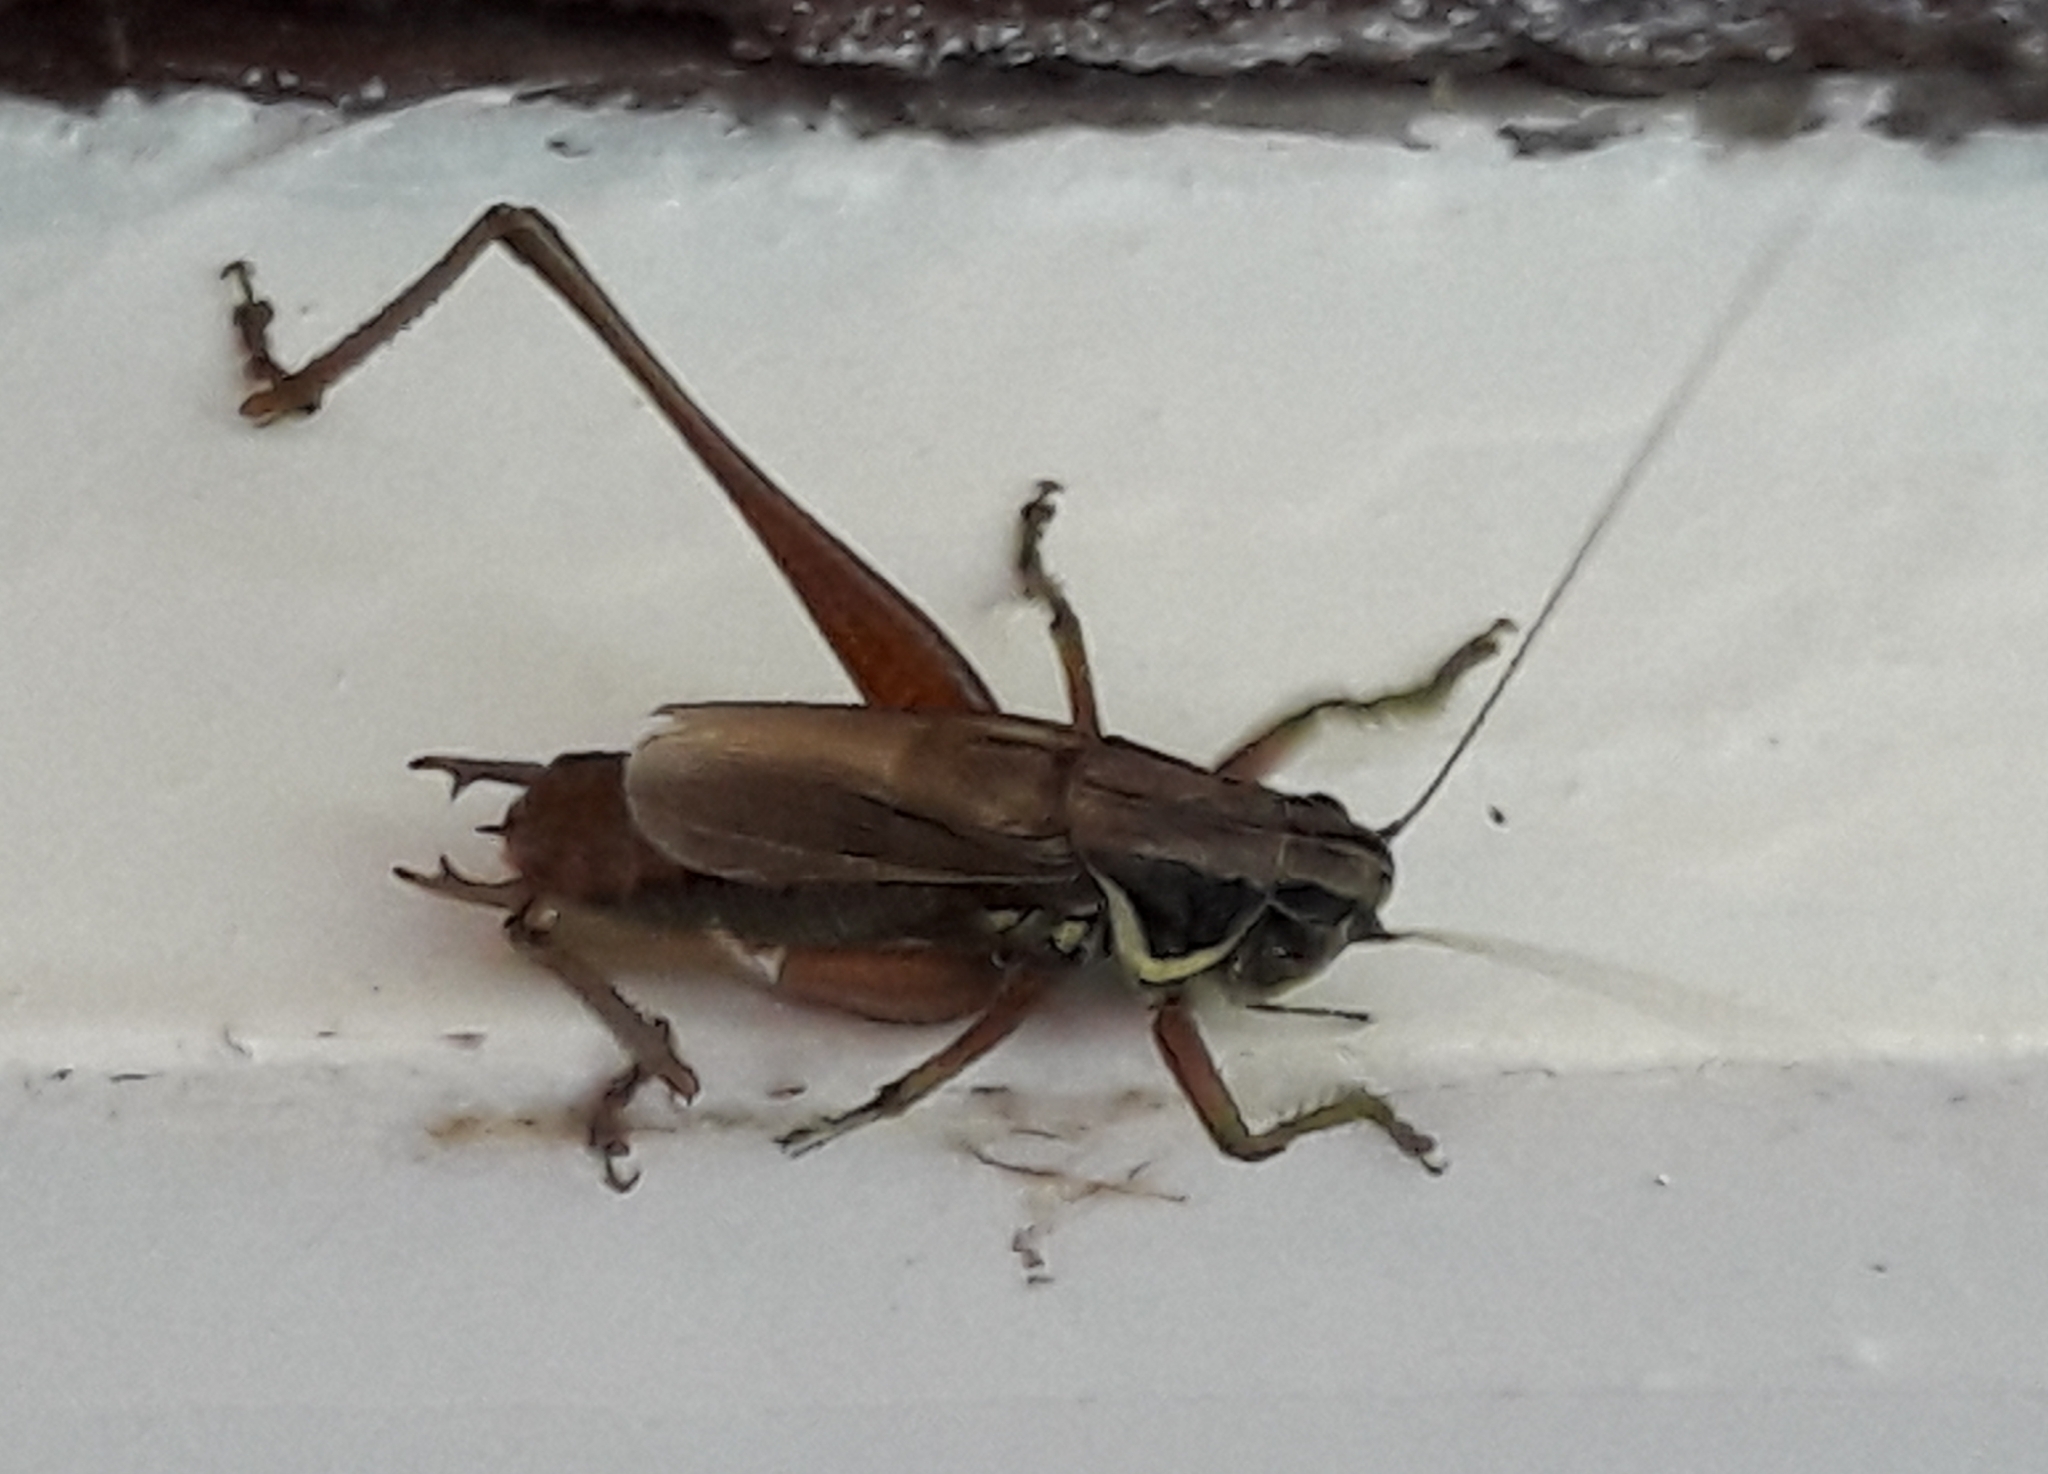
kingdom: Animalia
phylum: Arthropoda
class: Insecta
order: Orthoptera
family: Tettigoniidae
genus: Roeseliana
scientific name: Roeseliana roeselii
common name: Roesel's bush cricket
